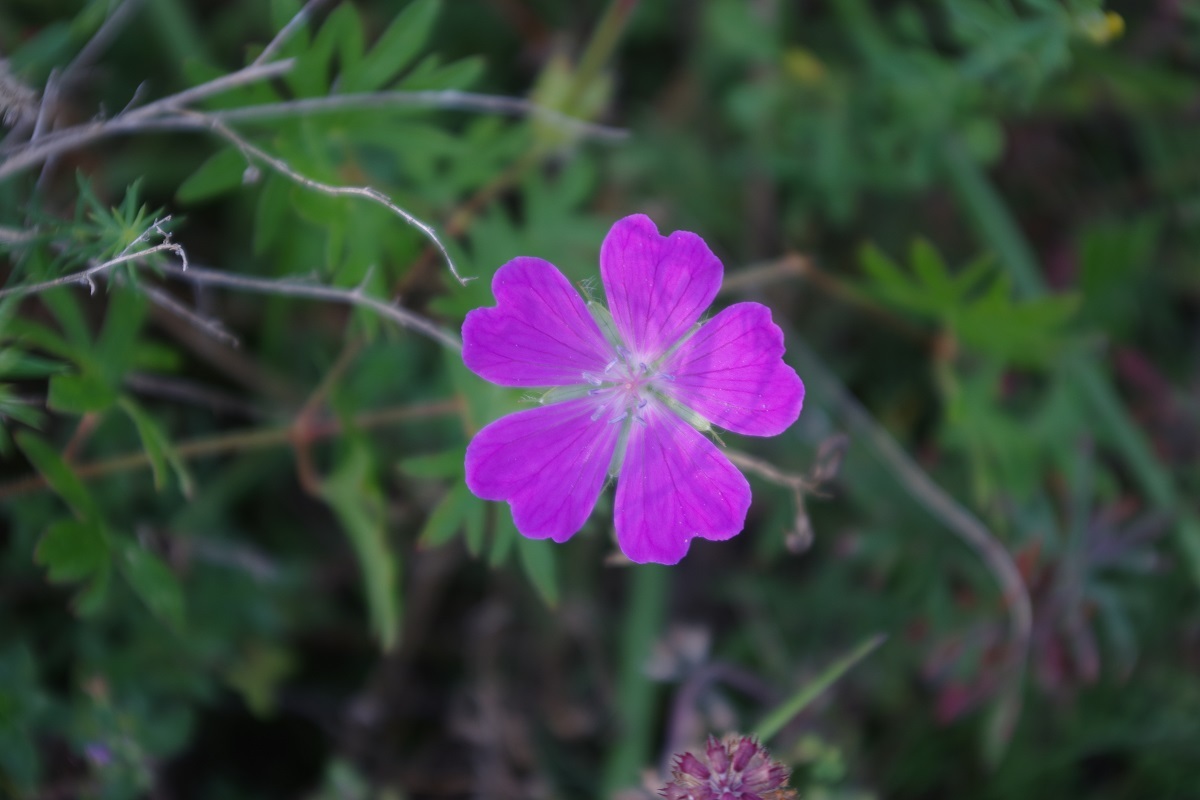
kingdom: Plantae
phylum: Tracheophyta
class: Magnoliopsida
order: Geraniales
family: Geraniaceae
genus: Geranium
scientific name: Geranium sanguineum
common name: Bloody crane's-bill
